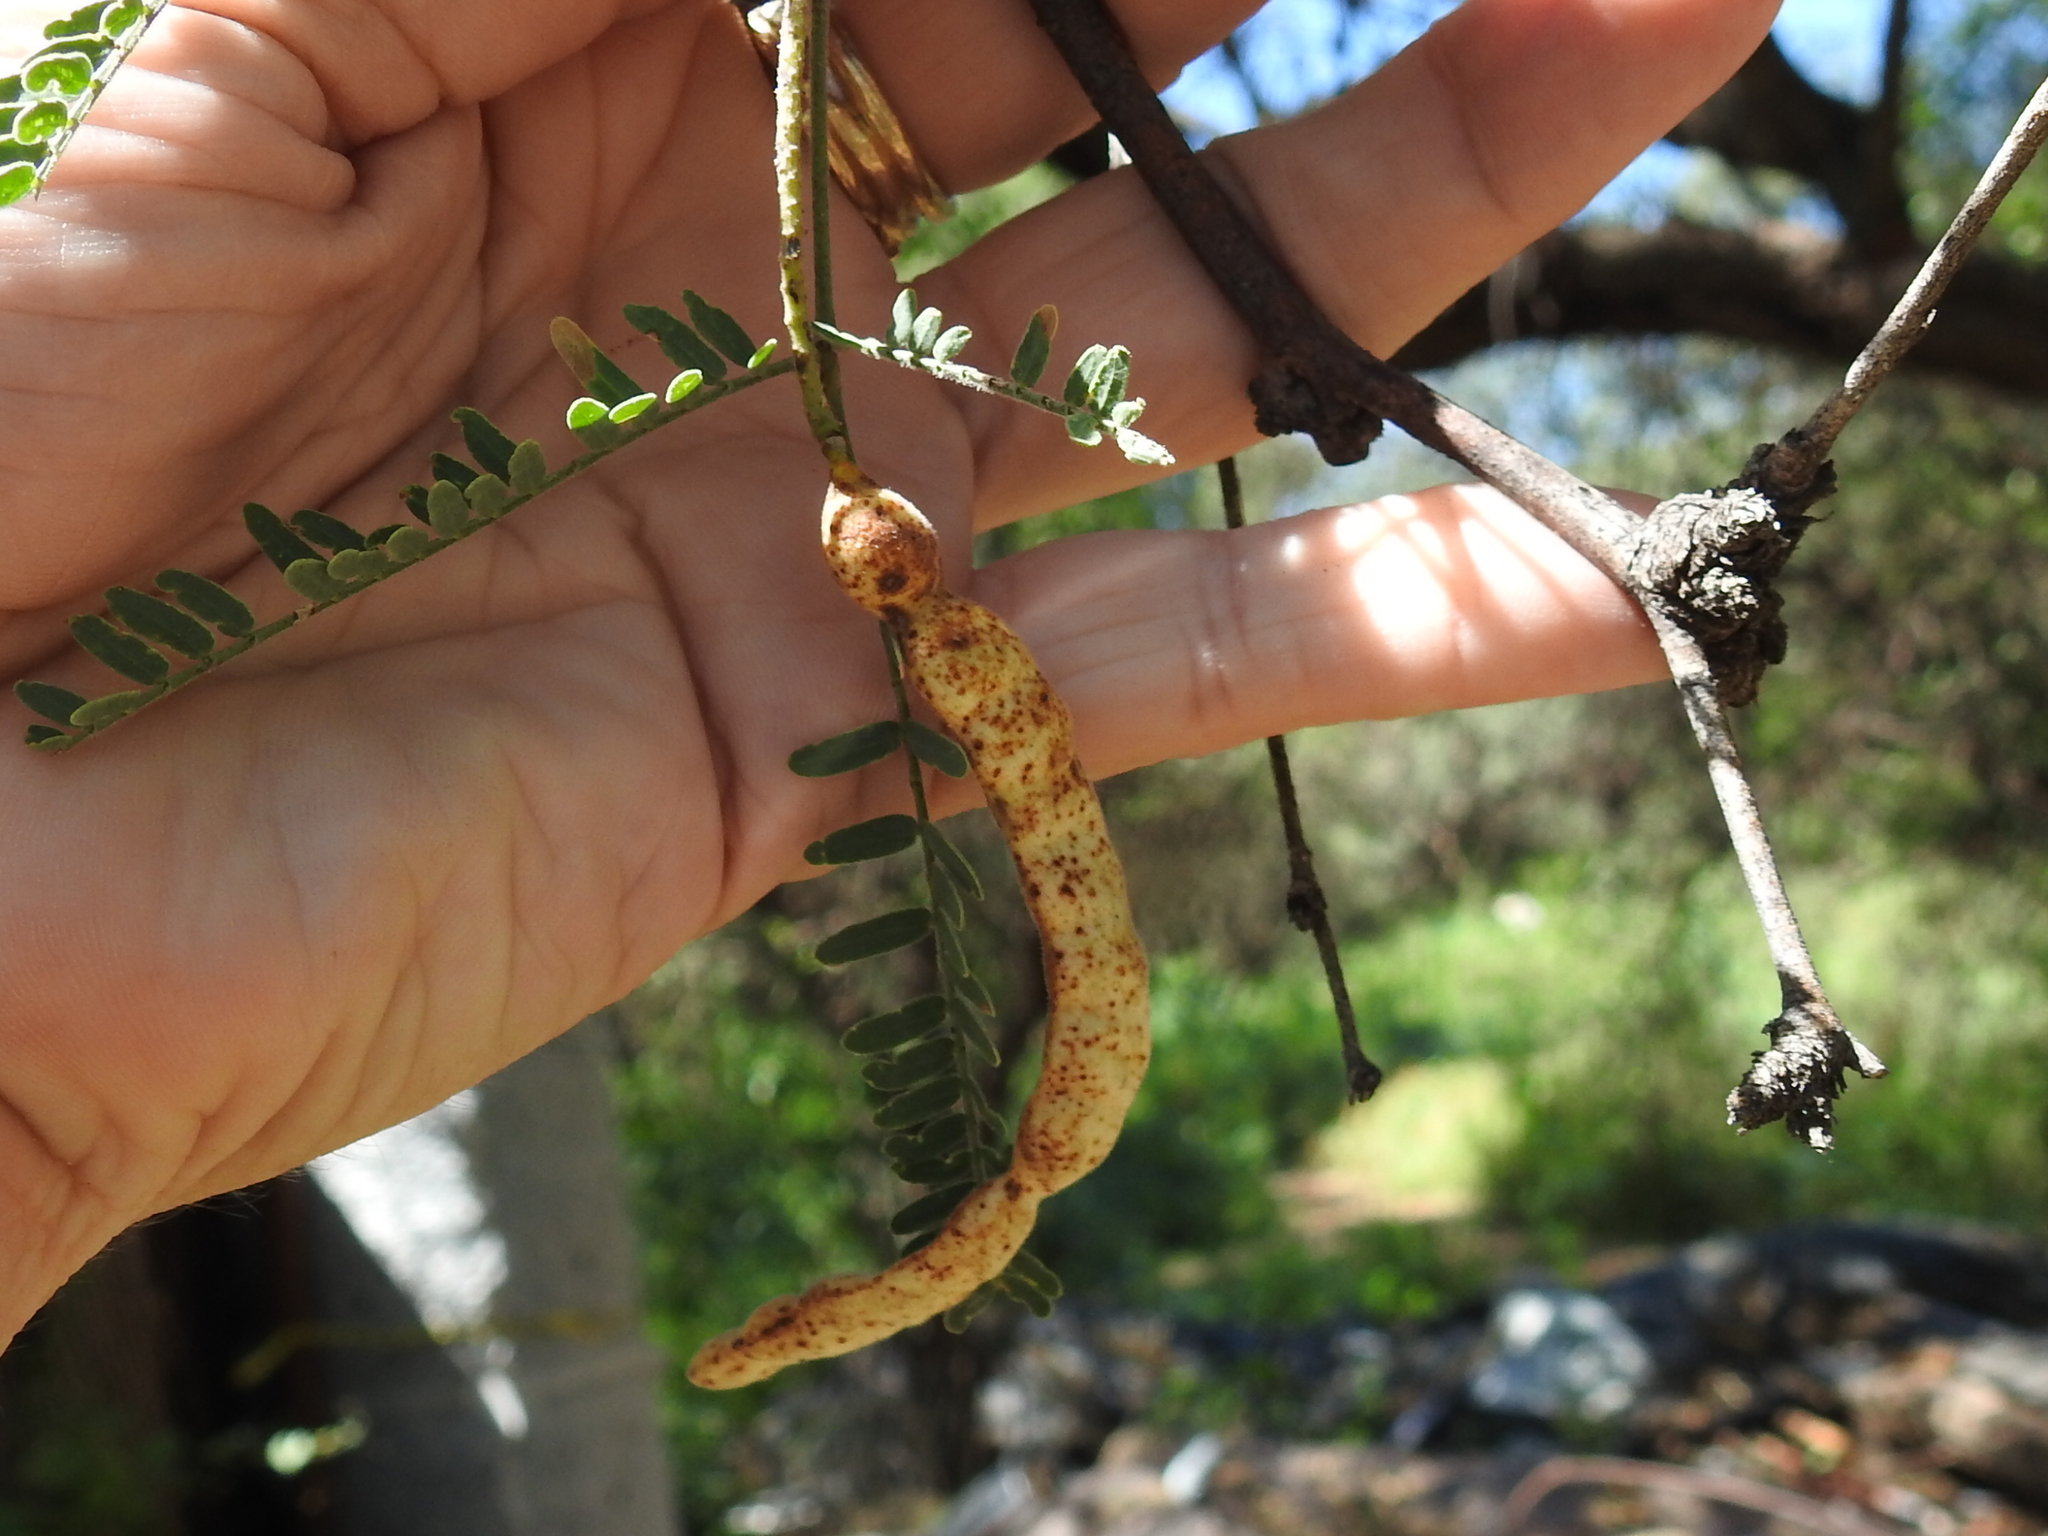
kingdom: Plantae
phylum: Tracheophyta
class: Magnoliopsida
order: Fabales
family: Fabaceae
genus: Prosopis
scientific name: Prosopis velutina
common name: Velvet mesquite
